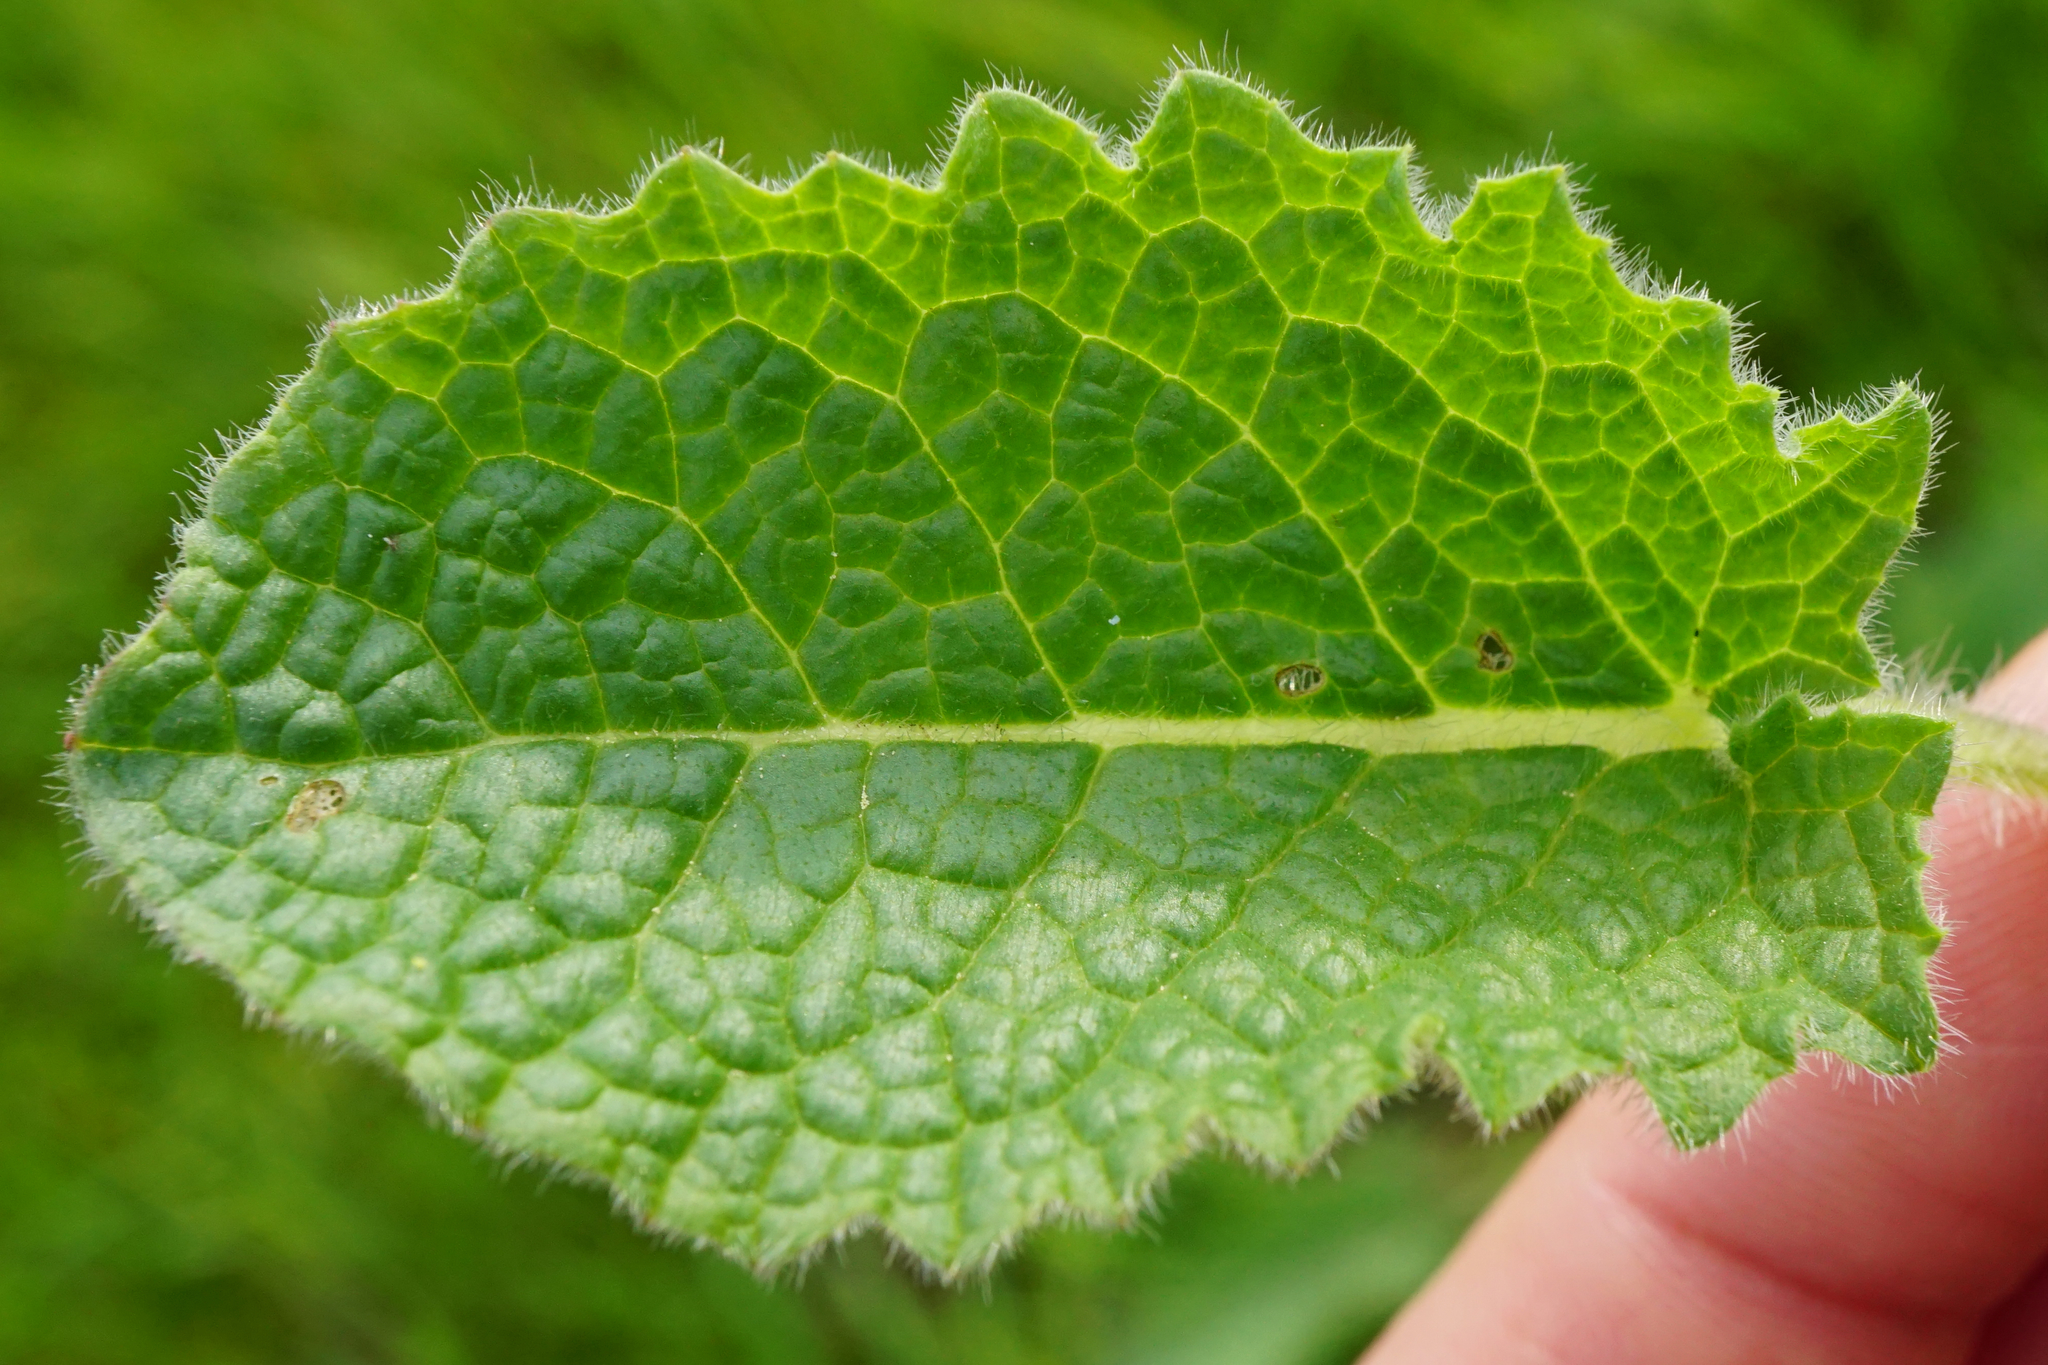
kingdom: Plantae
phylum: Tracheophyta
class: Magnoliopsida
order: Lamiales
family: Lamiaceae
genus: Salvia
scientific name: Salvia verticillata
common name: Whorled clary
